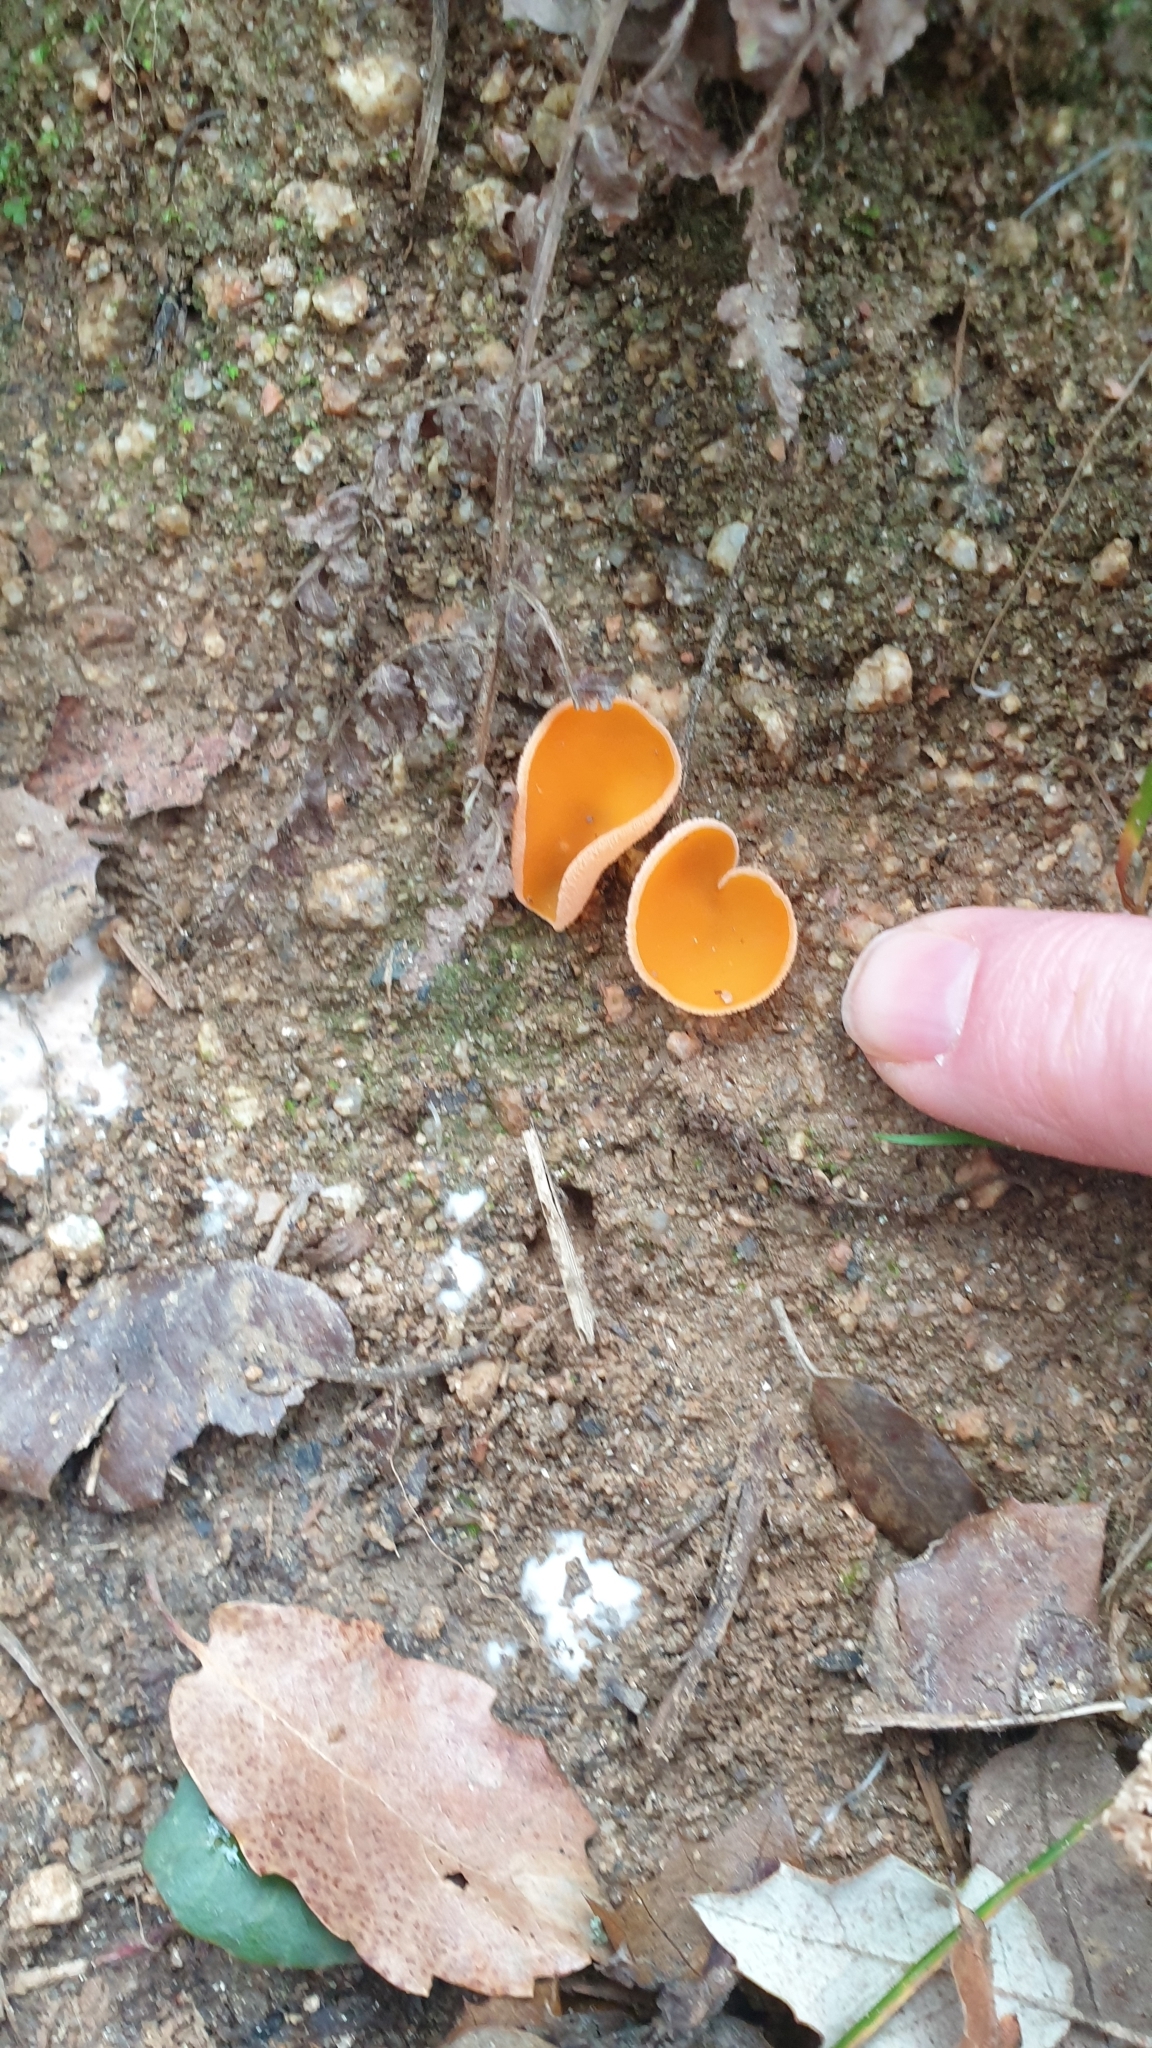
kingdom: Fungi
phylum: Ascomycota
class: Pezizomycetes
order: Pezizales
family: Pyronemataceae
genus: Aleuria
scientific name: Aleuria aurantia
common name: Orange peel fungus
